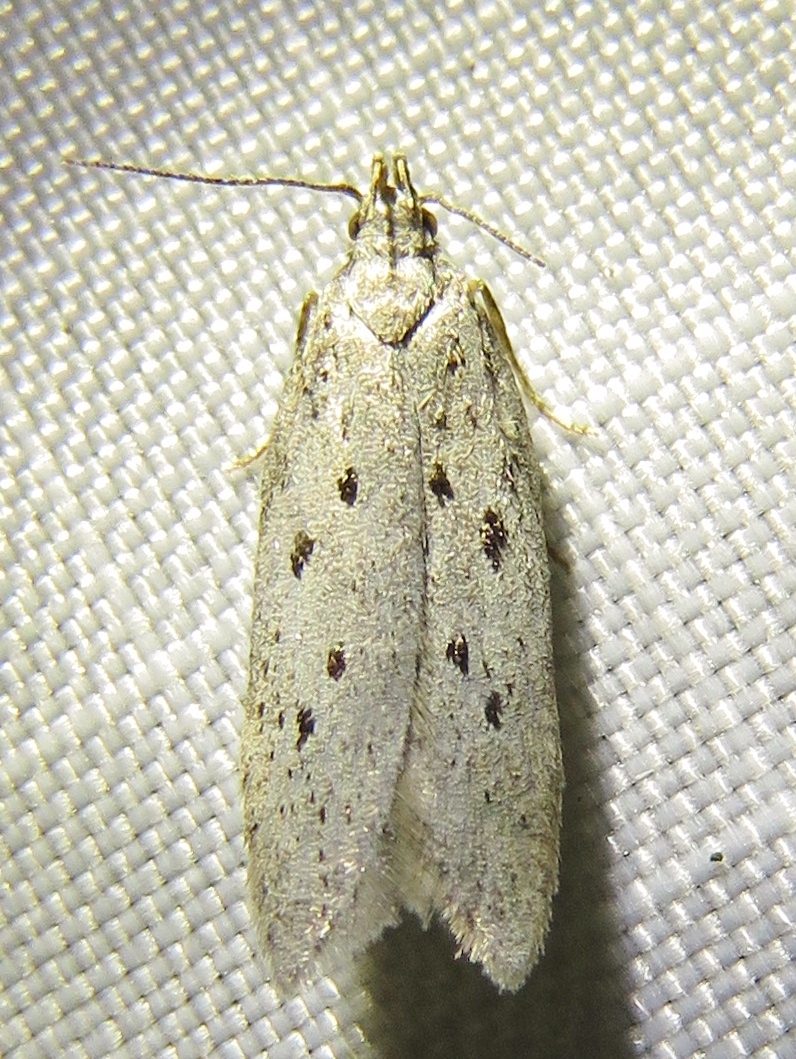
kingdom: Animalia
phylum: Arthropoda
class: Insecta
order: Lepidoptera
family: Gelechiidae
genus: Athrips
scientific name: Athrips mouffetella
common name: Dotted grey groundling
